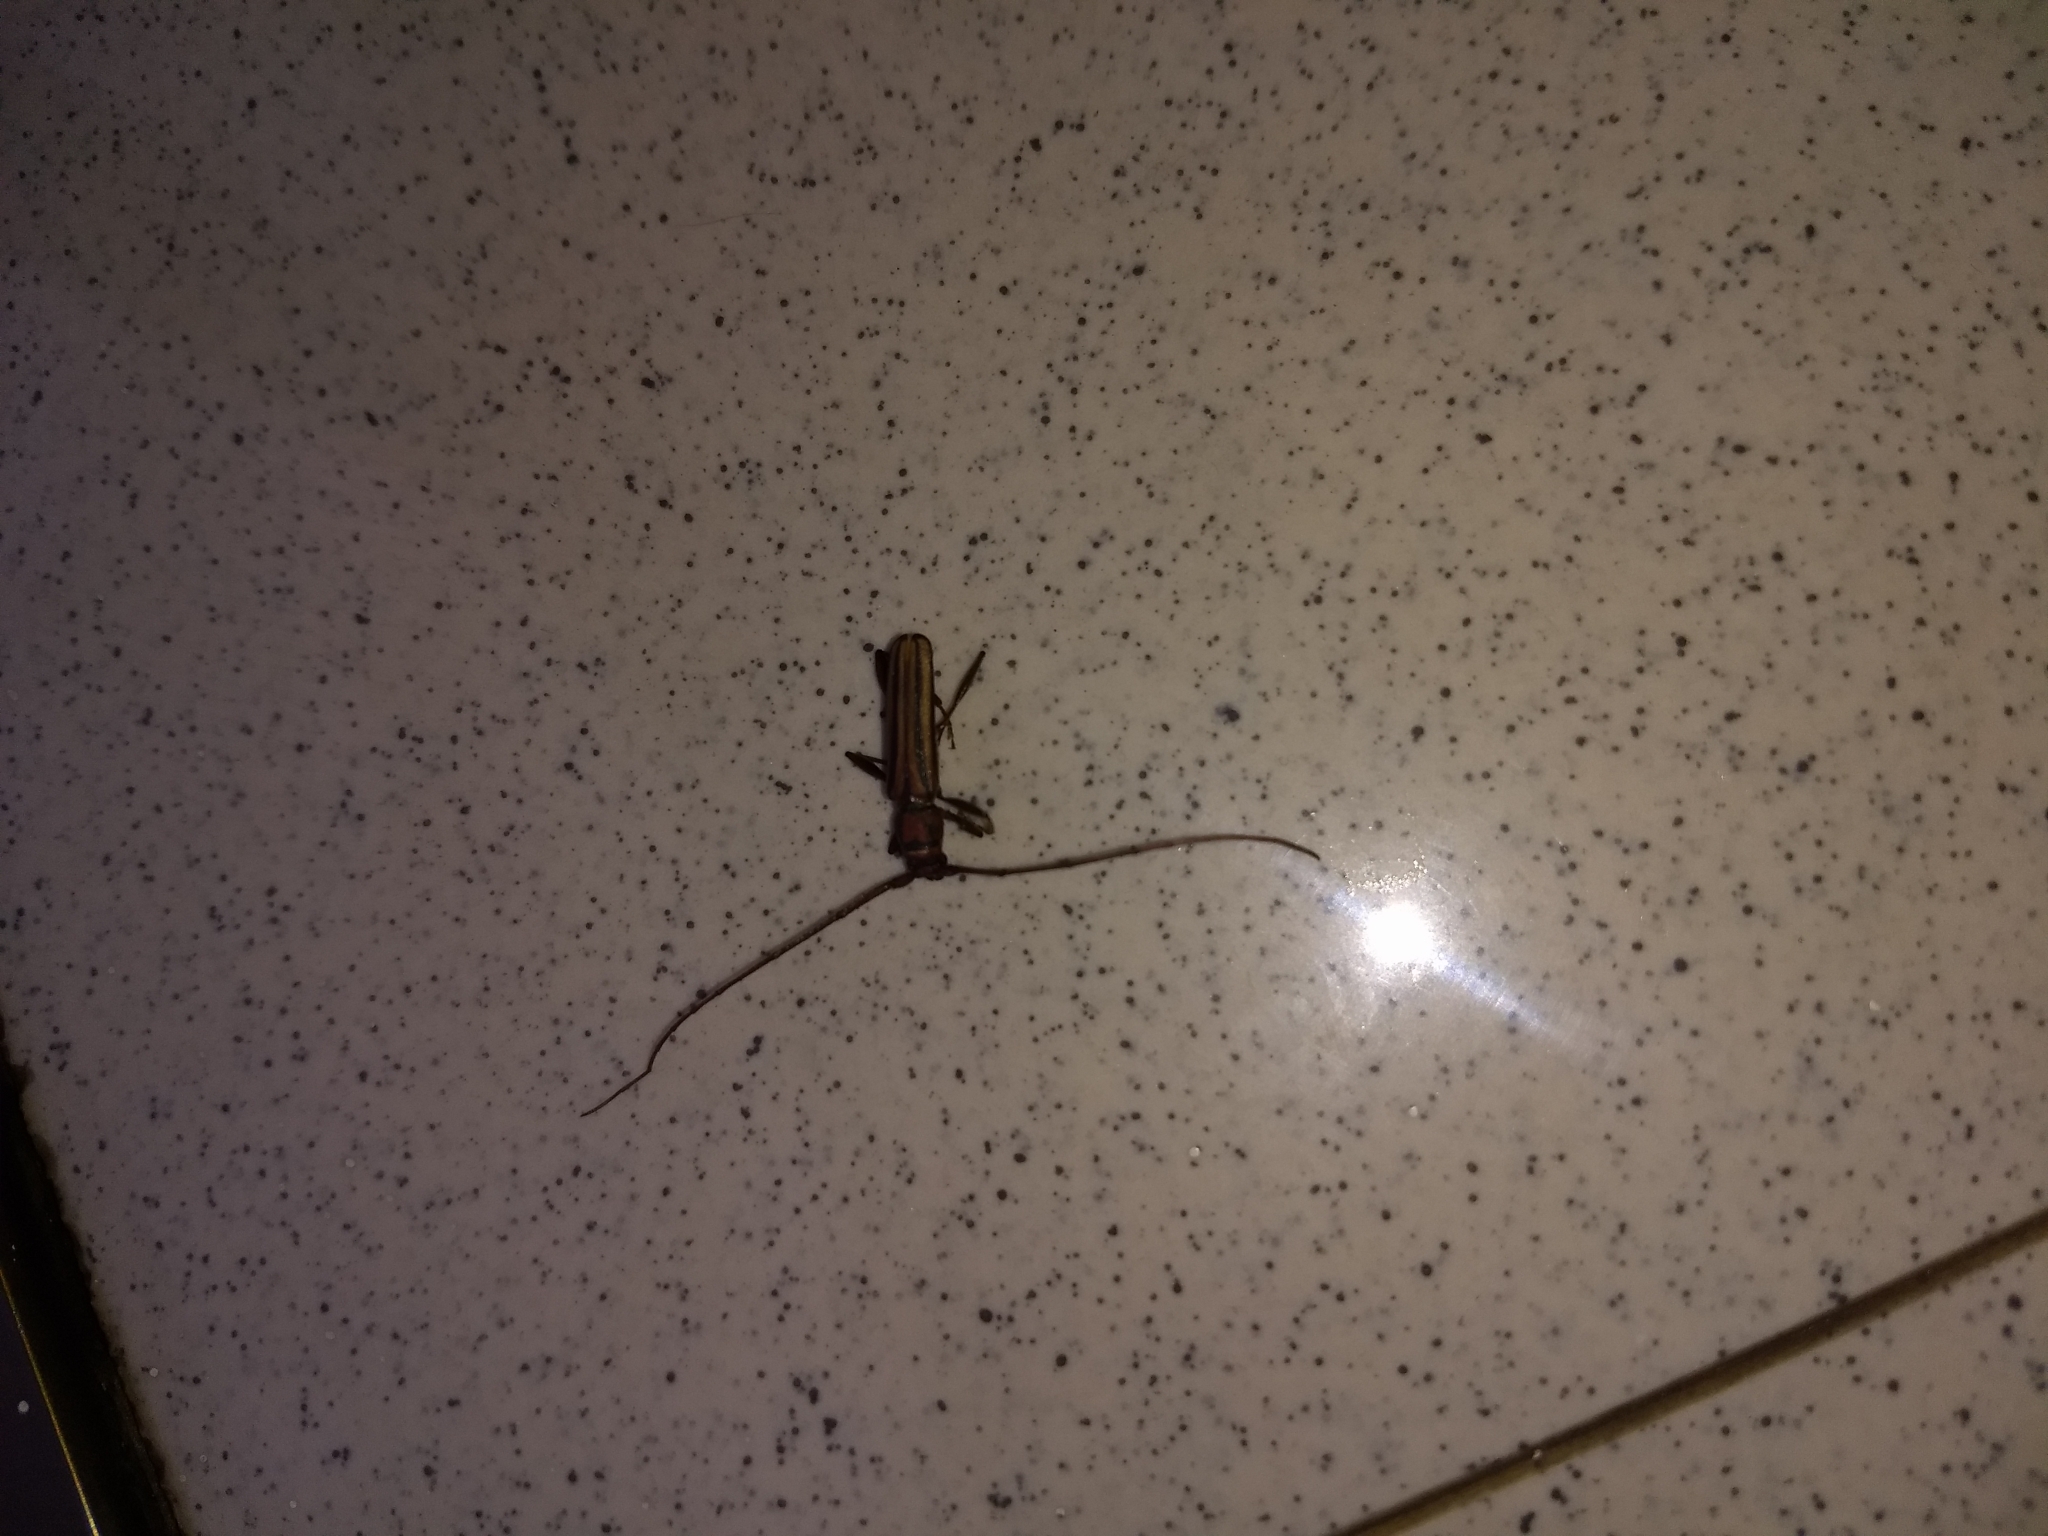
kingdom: Animalia
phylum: Arthropoda
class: Insecta
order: Coleoptera
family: Cerambycidae
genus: Xystrocera
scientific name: Xystrocera globosa
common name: Peach-tree longhorn
